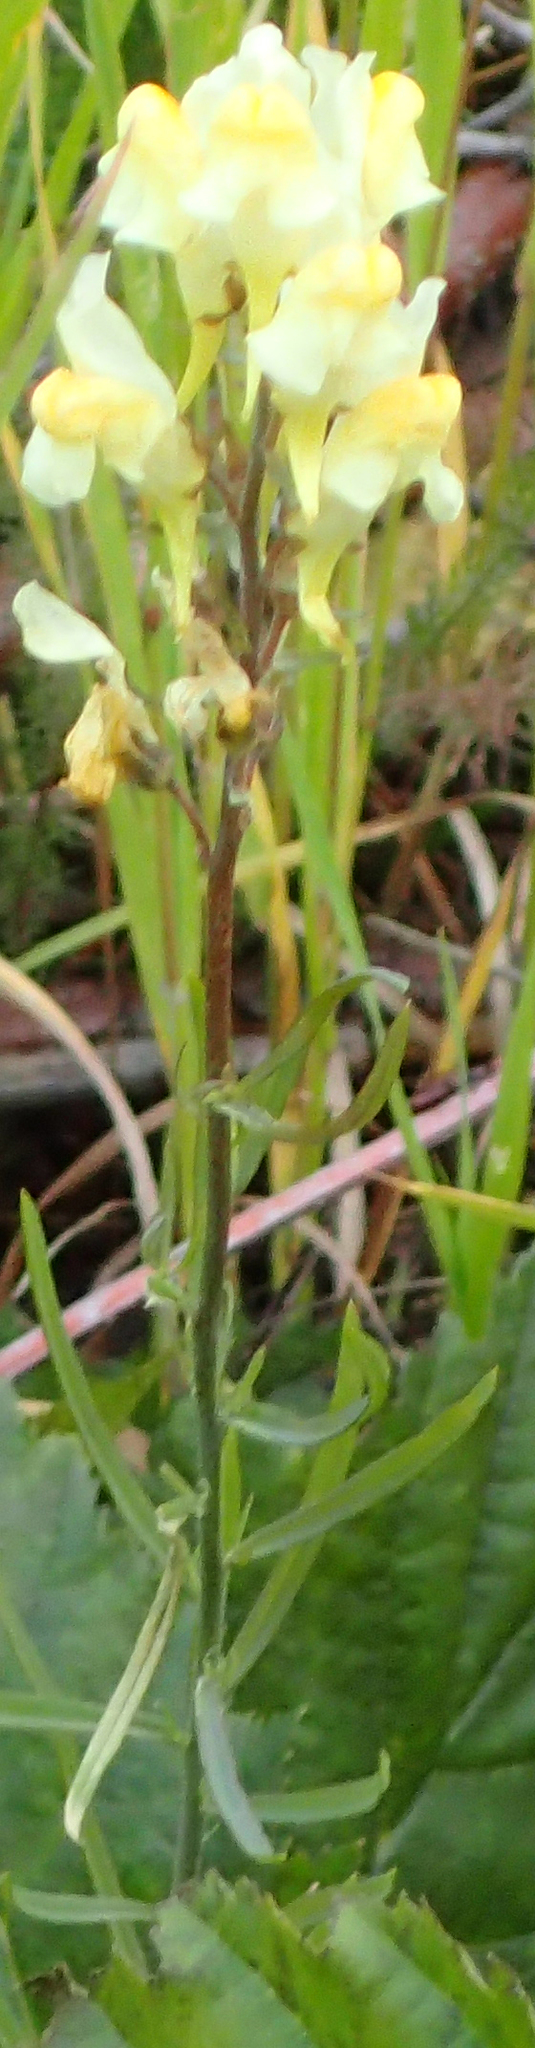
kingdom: Plantae
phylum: Tracheophyta
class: Magnoliopsida
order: Lamiales
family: Plantaginaceae
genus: Linaria
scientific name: Linaria vulgaris
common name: Butter and eggs
